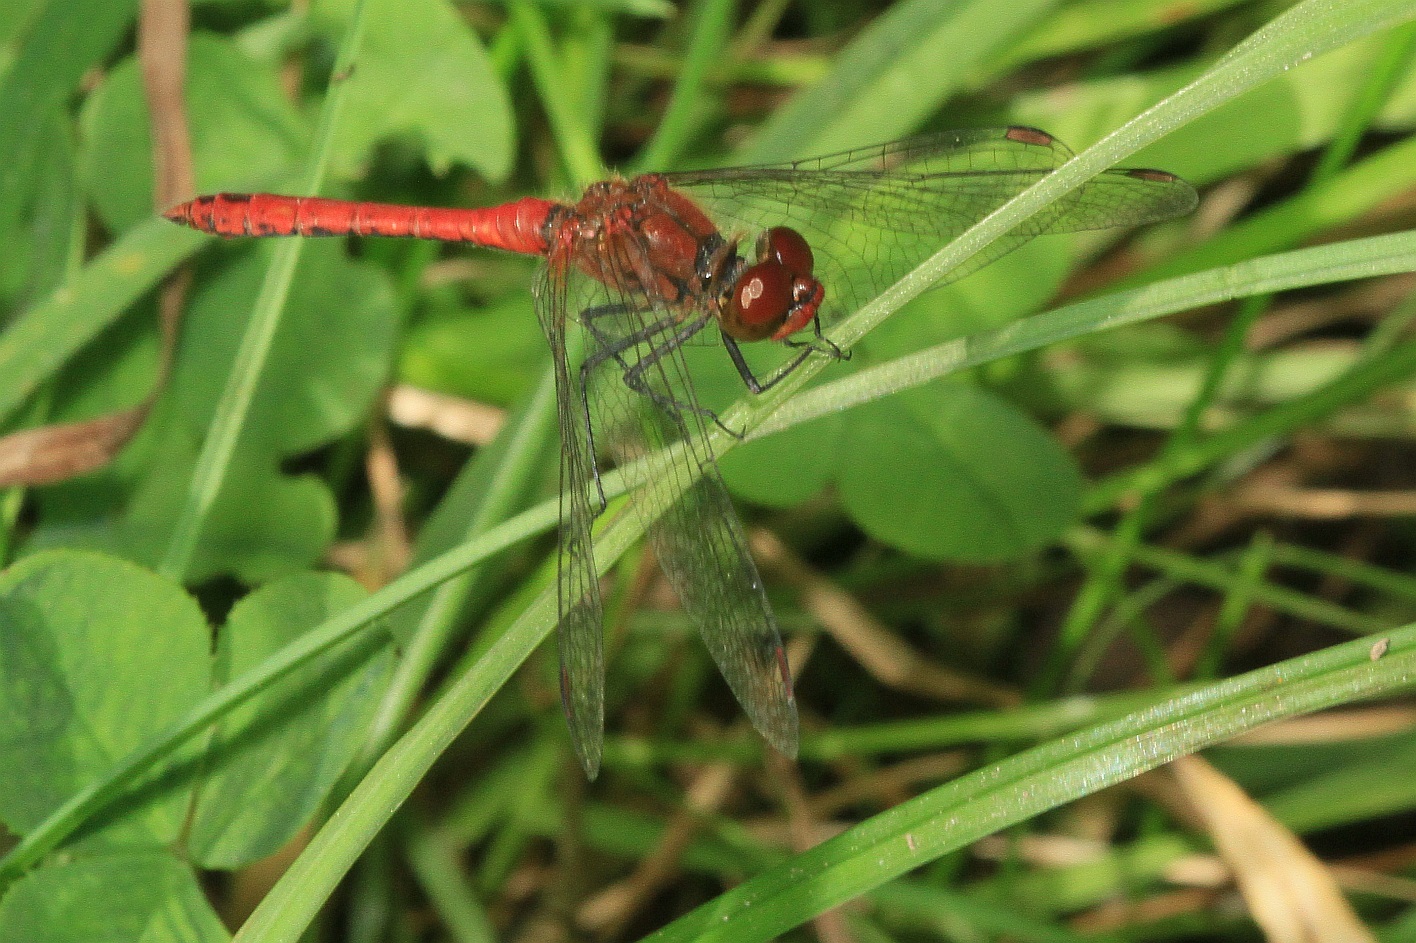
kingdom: Animalia
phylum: Arthropoda
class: Insecta
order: Odonata
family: Libellulidae
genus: Sympetrum
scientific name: Sympetrum sanguineum
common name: Ruddy darter
